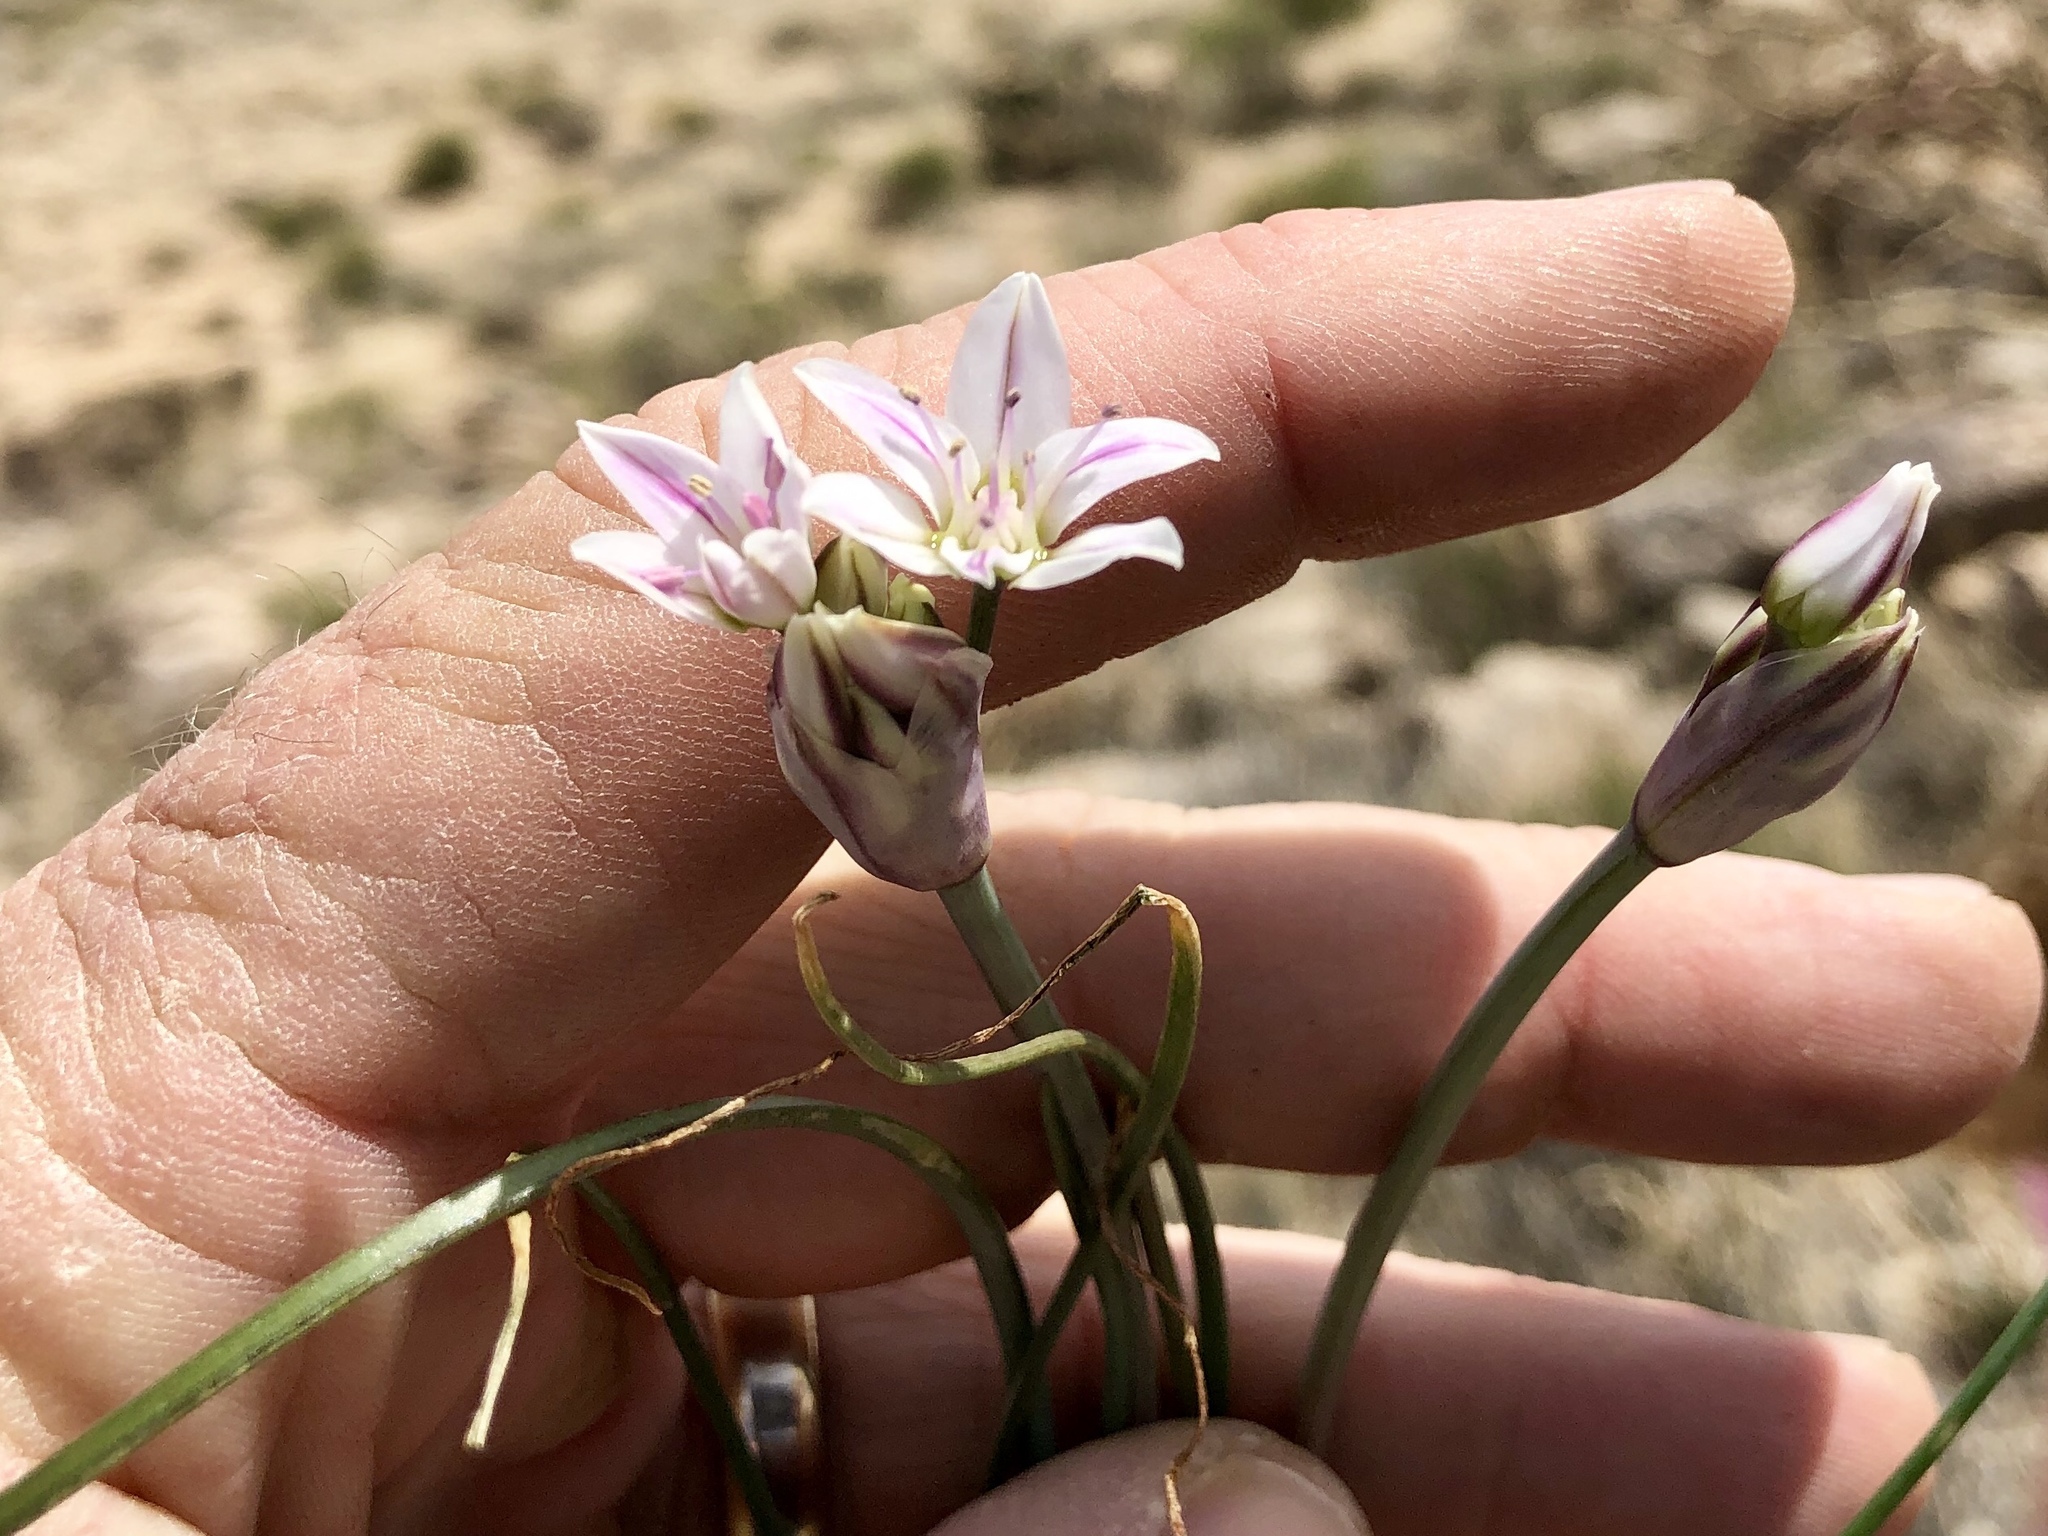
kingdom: Plantae
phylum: Tracheophyta
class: Liliopsida
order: Asparagales
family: Amaryllidaceae
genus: Allium
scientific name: Allium macropetalum
